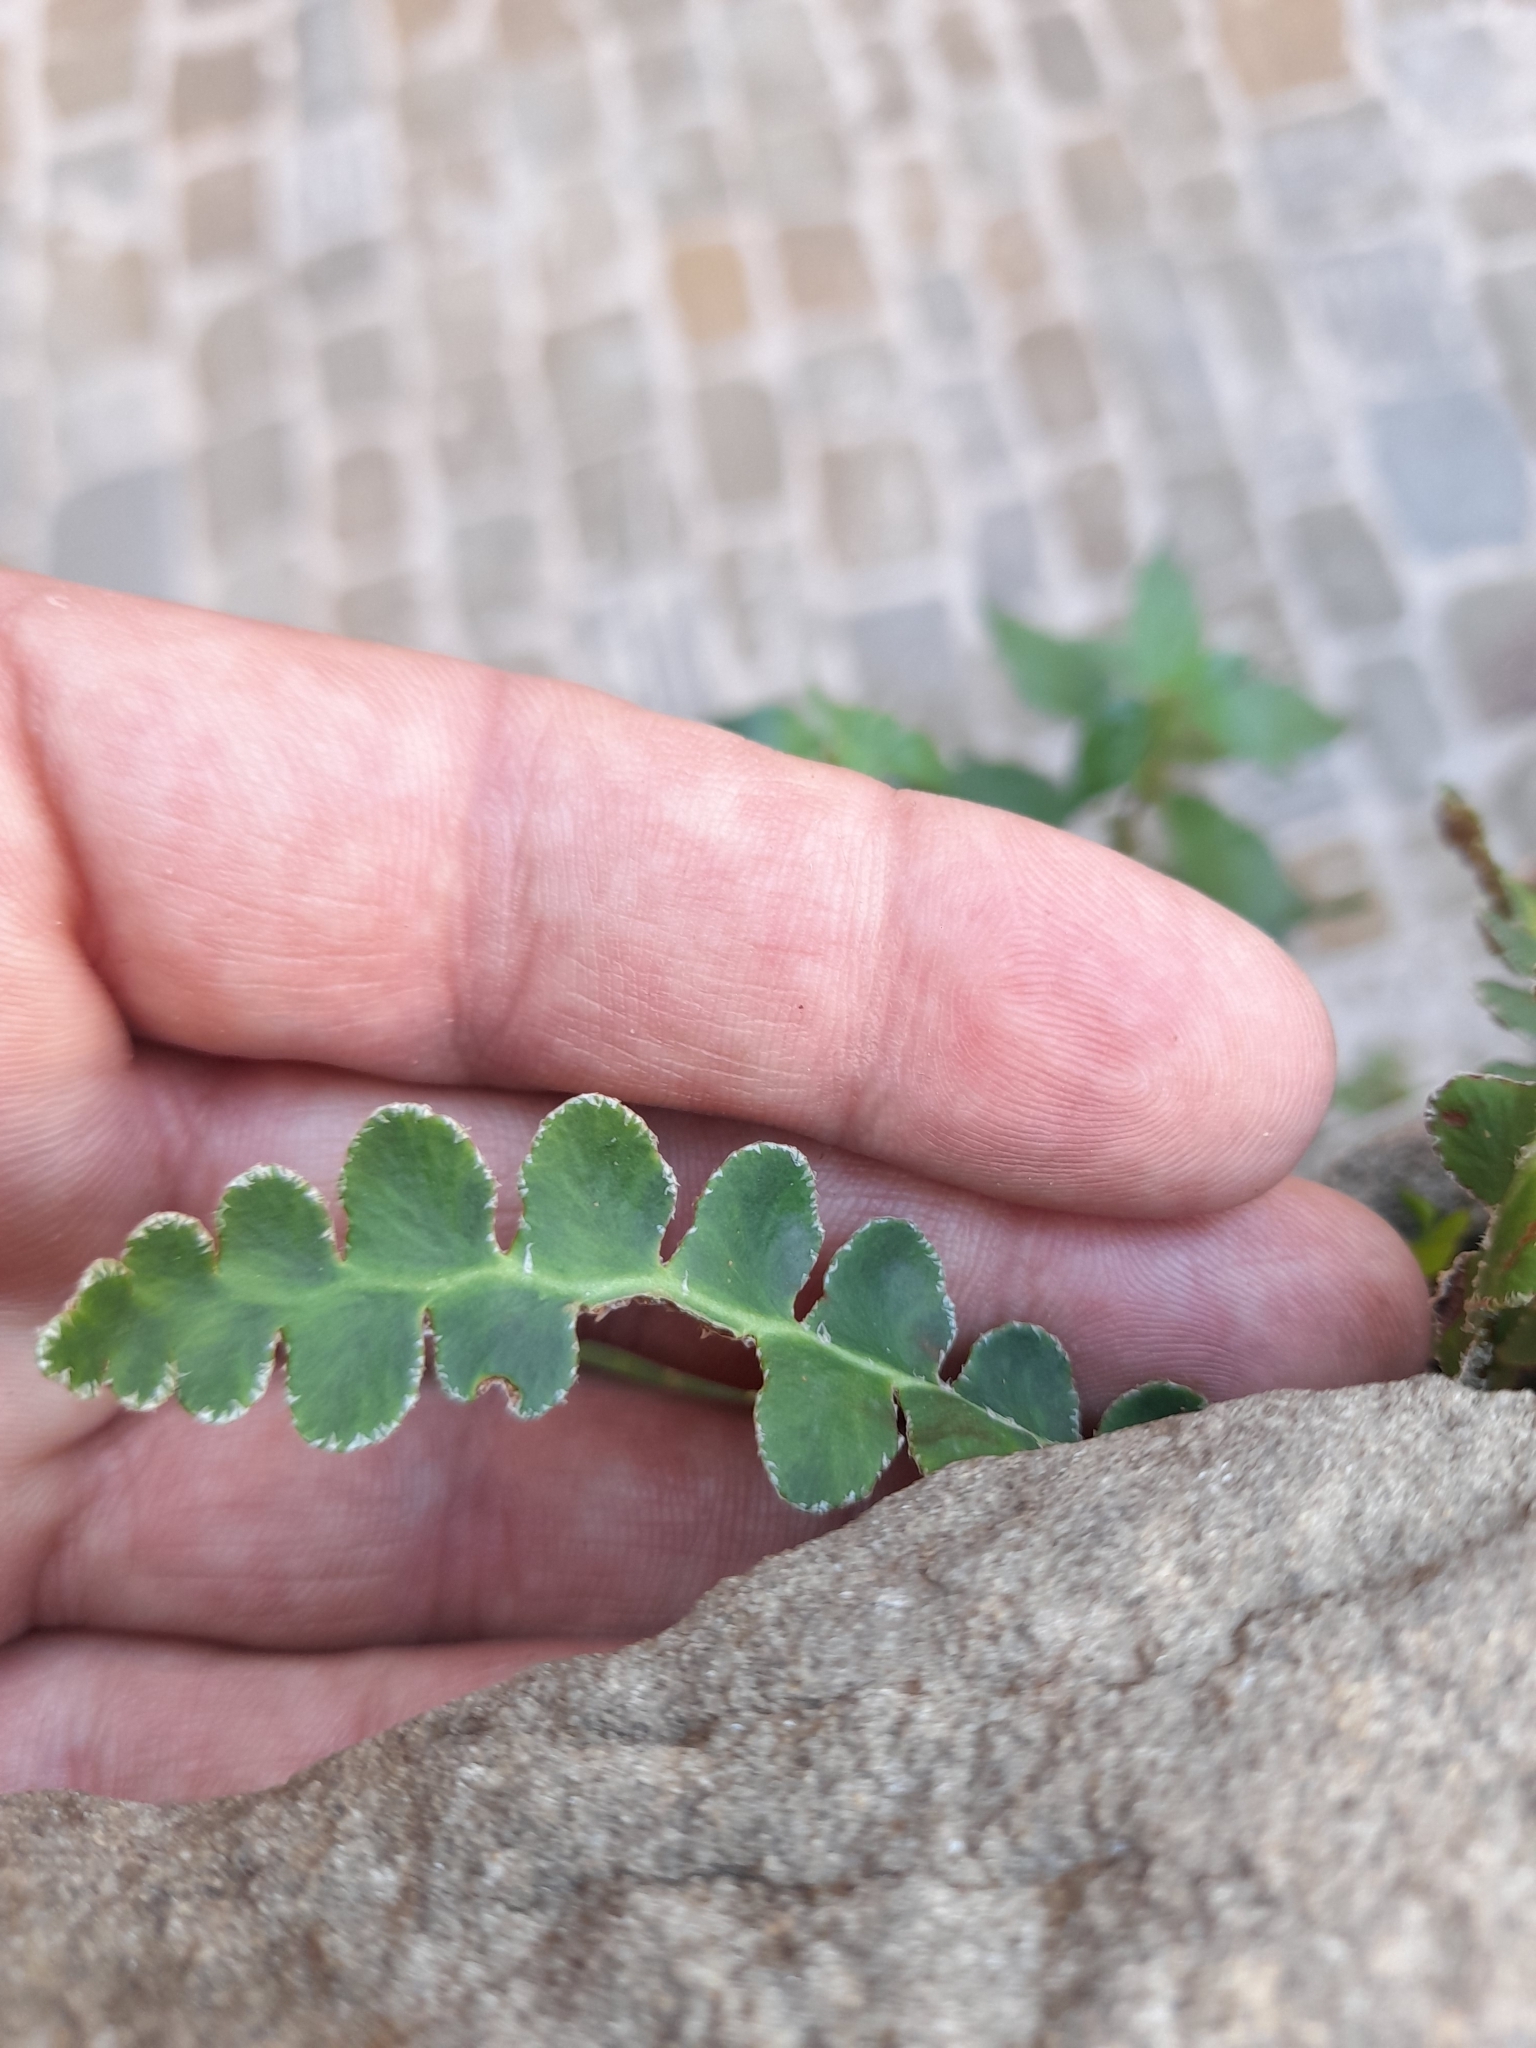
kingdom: Plantae
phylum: Tracheophyta
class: Polypodiopsida
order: Polypodiales
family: Aspleniaceae
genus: Asplenium
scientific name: Asplenium ceterach
